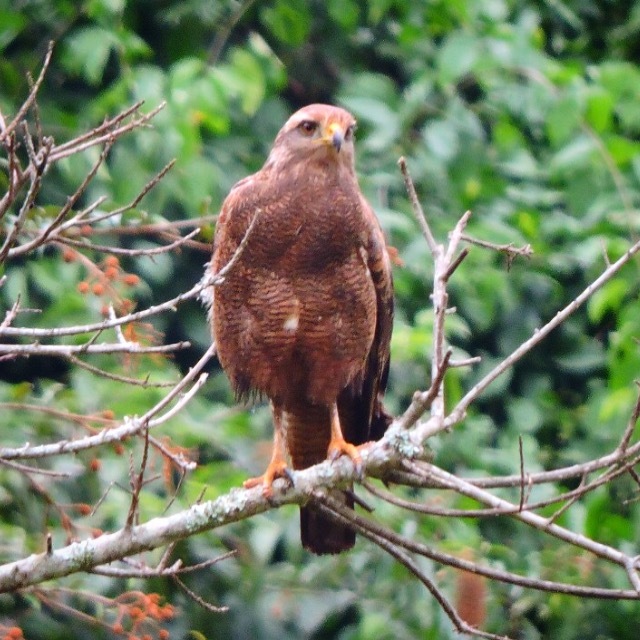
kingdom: Animalia
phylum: Chordata
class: Aves
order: Accipitriformes
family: Accipitridae
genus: Buteogallus
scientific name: Buteogallus meridionalis
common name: Savanna hawk
